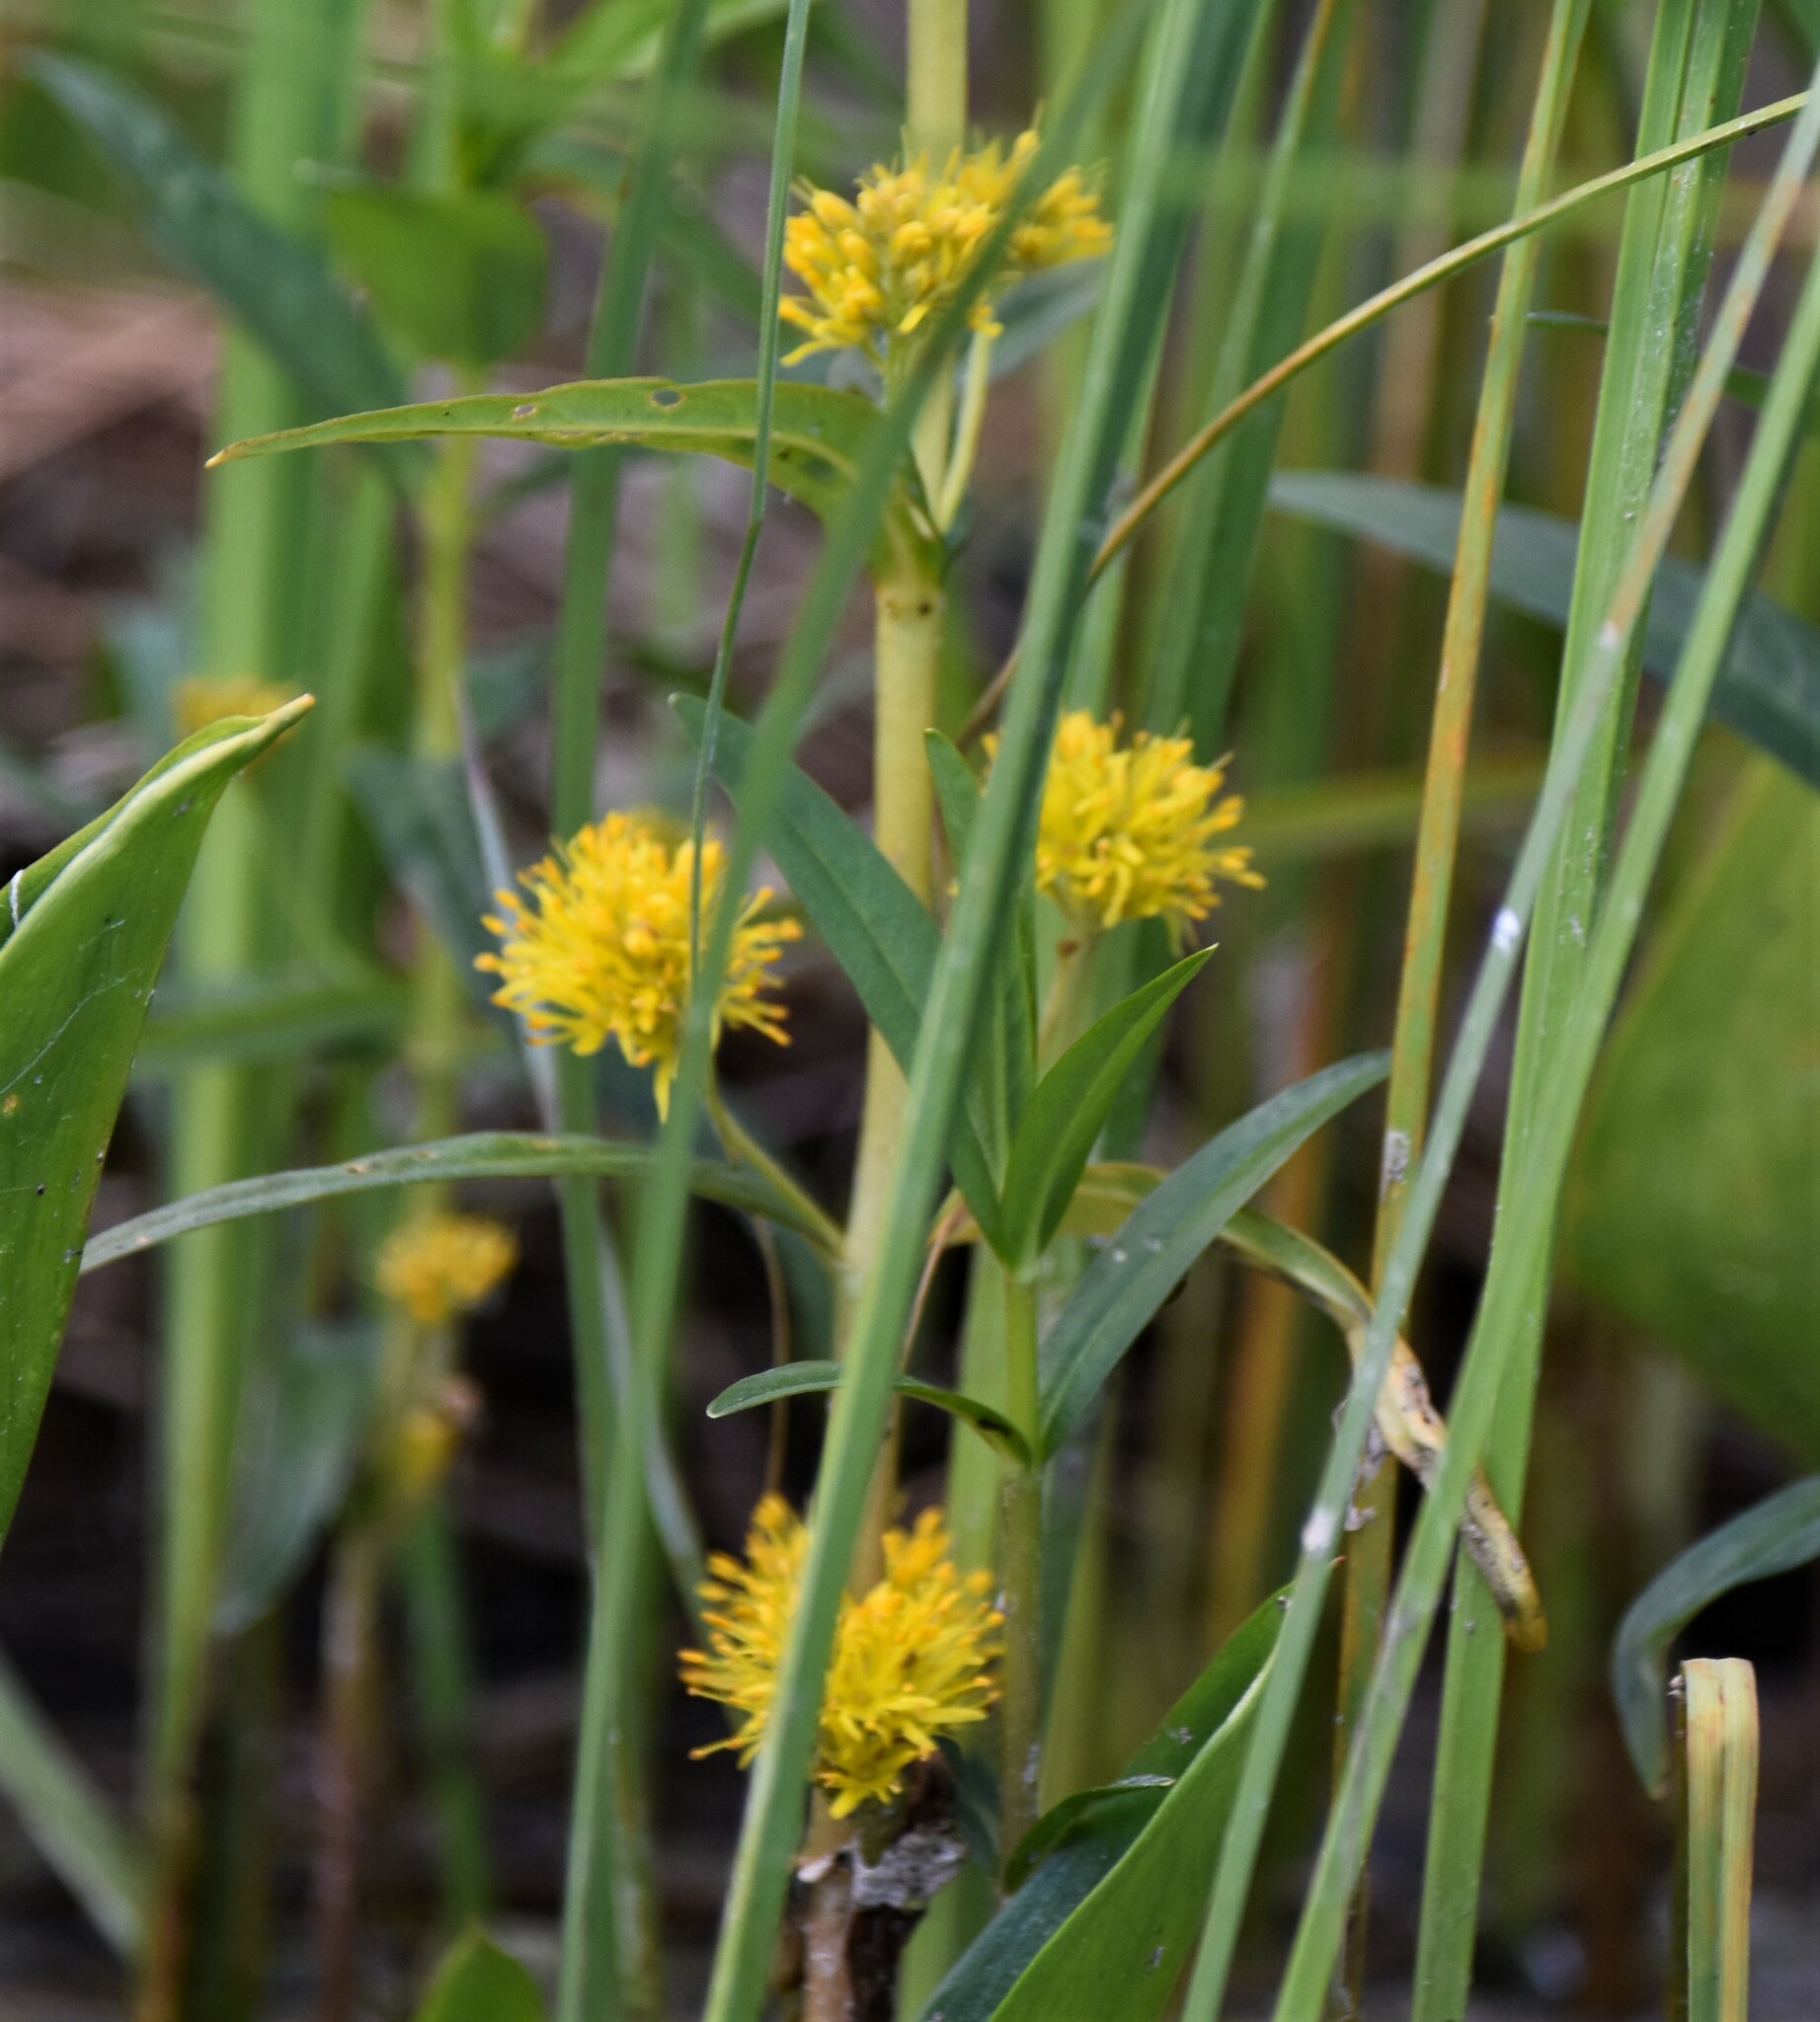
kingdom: Plantae
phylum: Tracheophyta
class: Magnoliopsida
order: Ericales
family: Primulaceae
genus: Lysimachia
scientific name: Lysimachia thyrsiflora
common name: Tufted loosestrife
